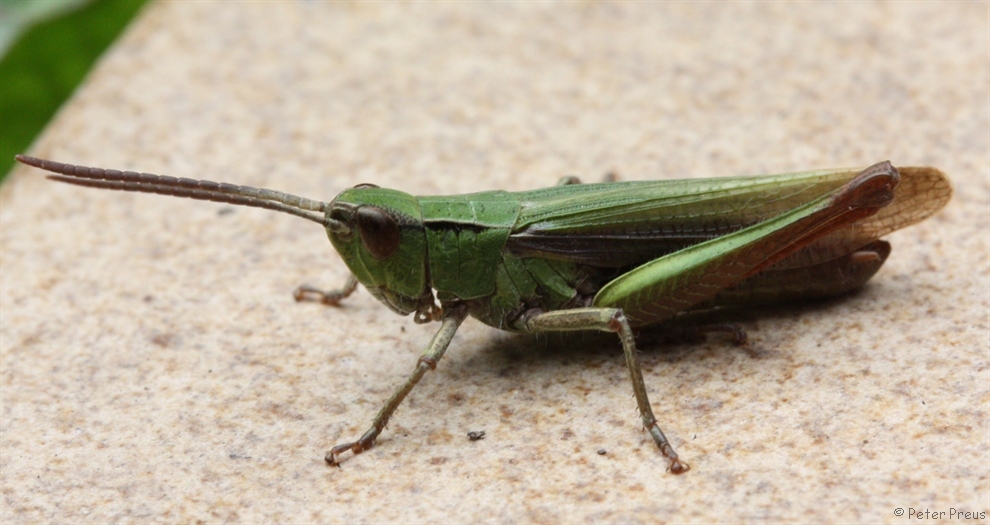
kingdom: Animalia
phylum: Arthropoda
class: Insecta
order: Orthoptera
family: Acrididae
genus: Chorthippus
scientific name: Chorthippus dorsatus
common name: Steppe grasshopper
